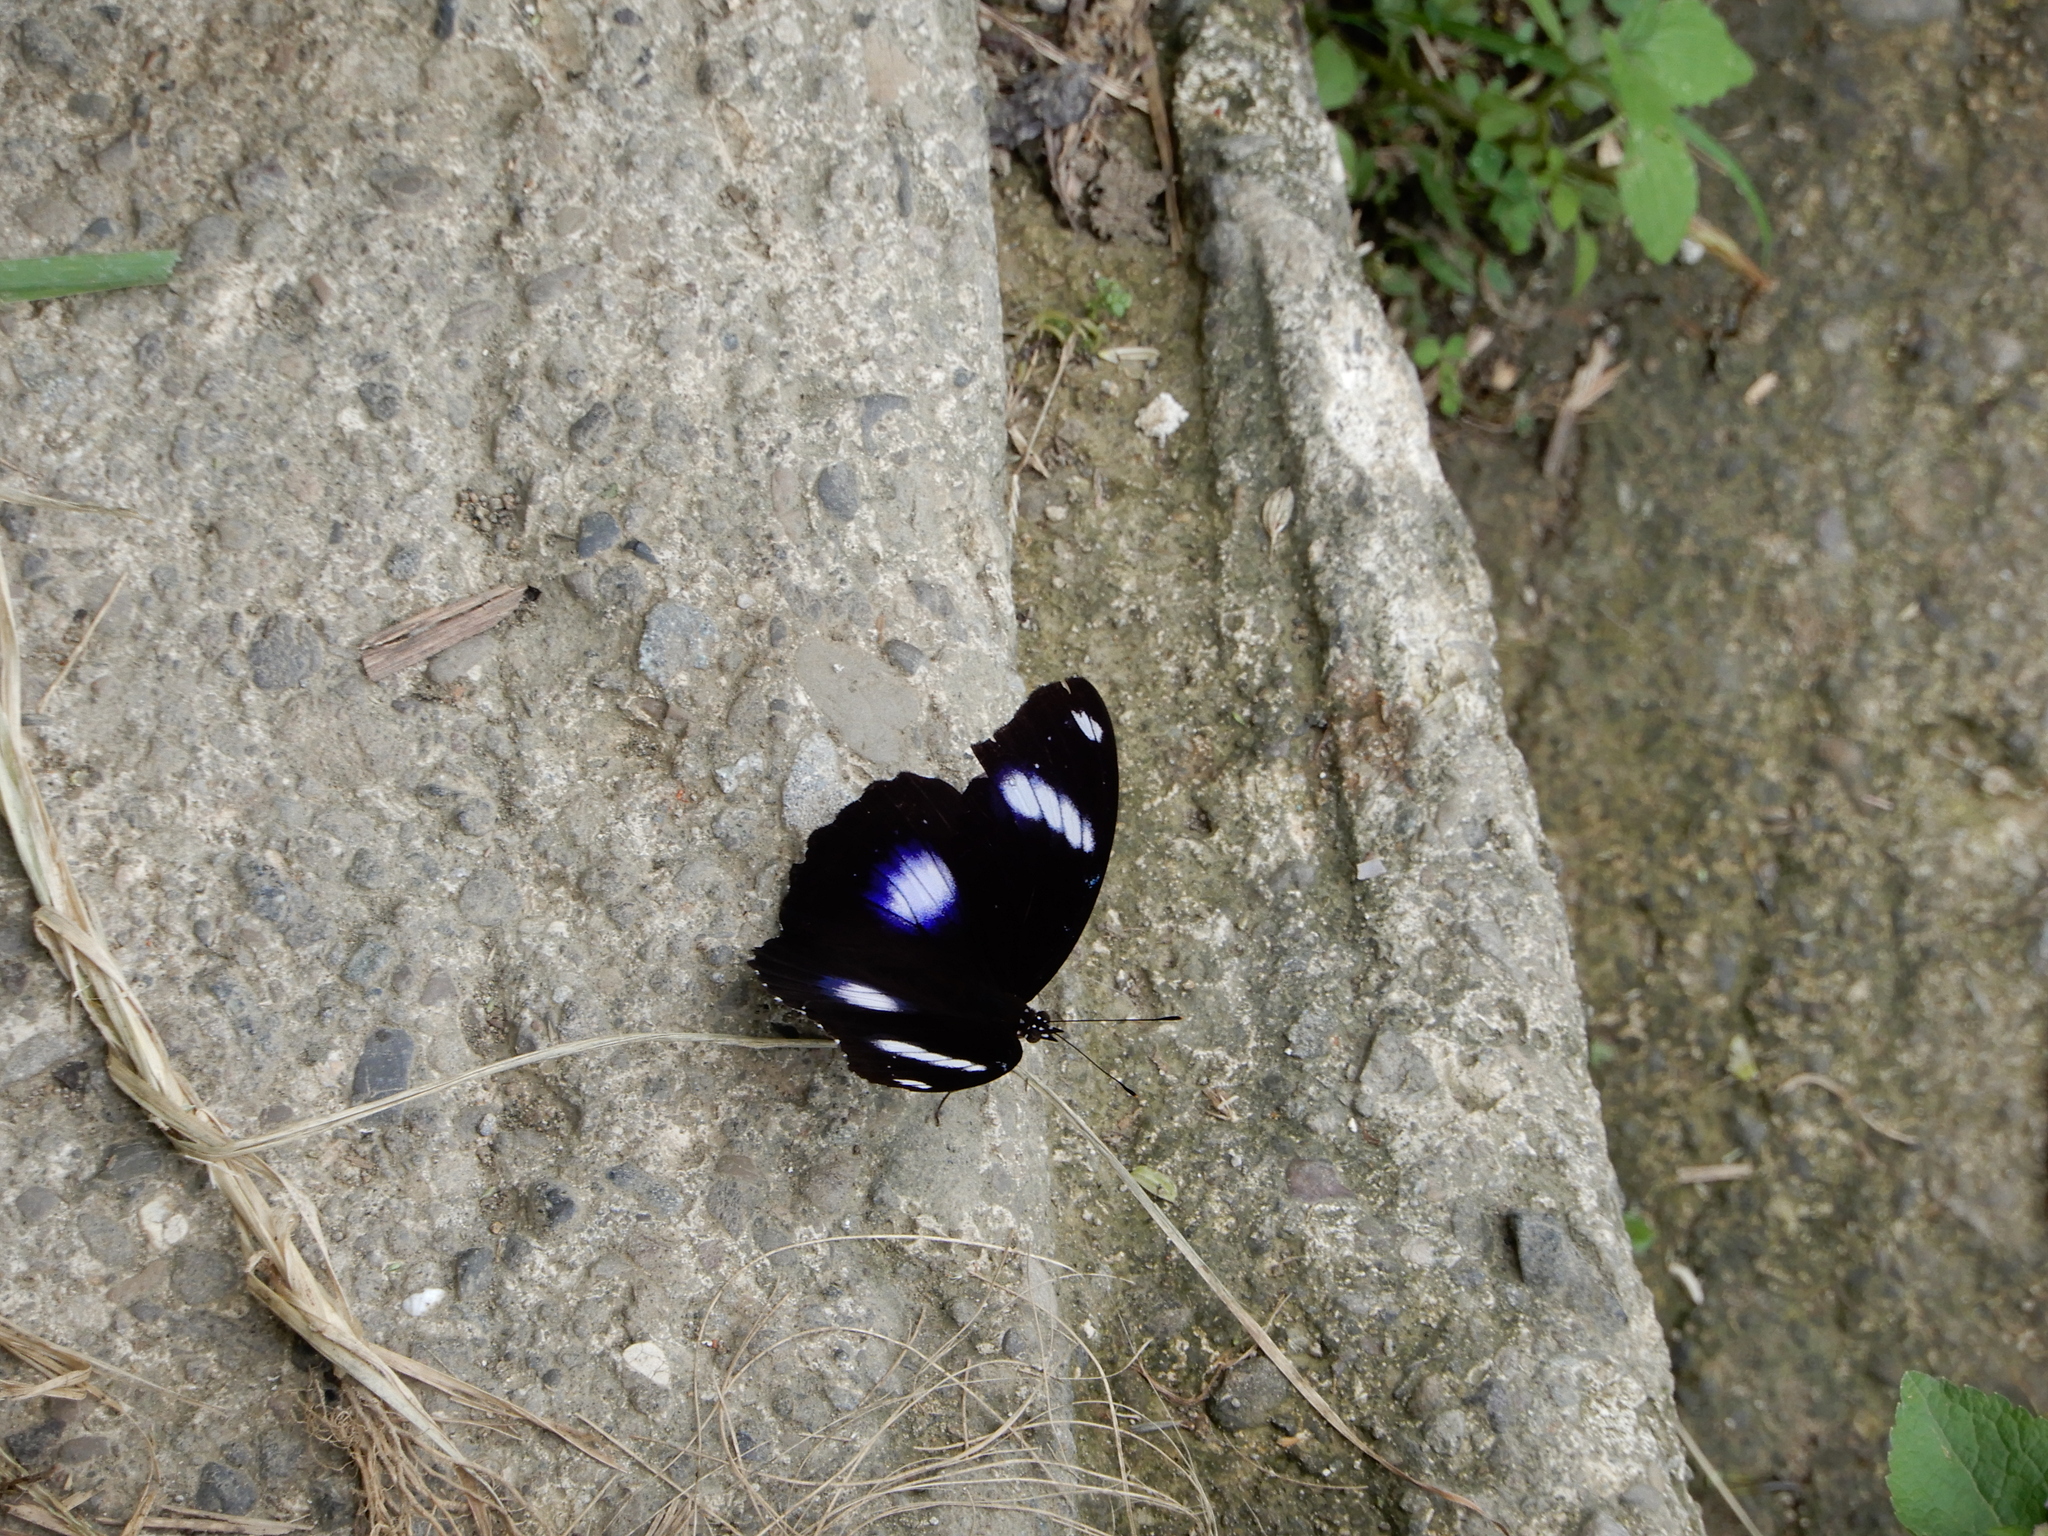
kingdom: Animalia
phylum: Arthropoda
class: Insecta
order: Lepidoptera
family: Nymphalidae
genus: Hypolimnas
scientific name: Hypolimnas bolina
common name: Great eggfly
